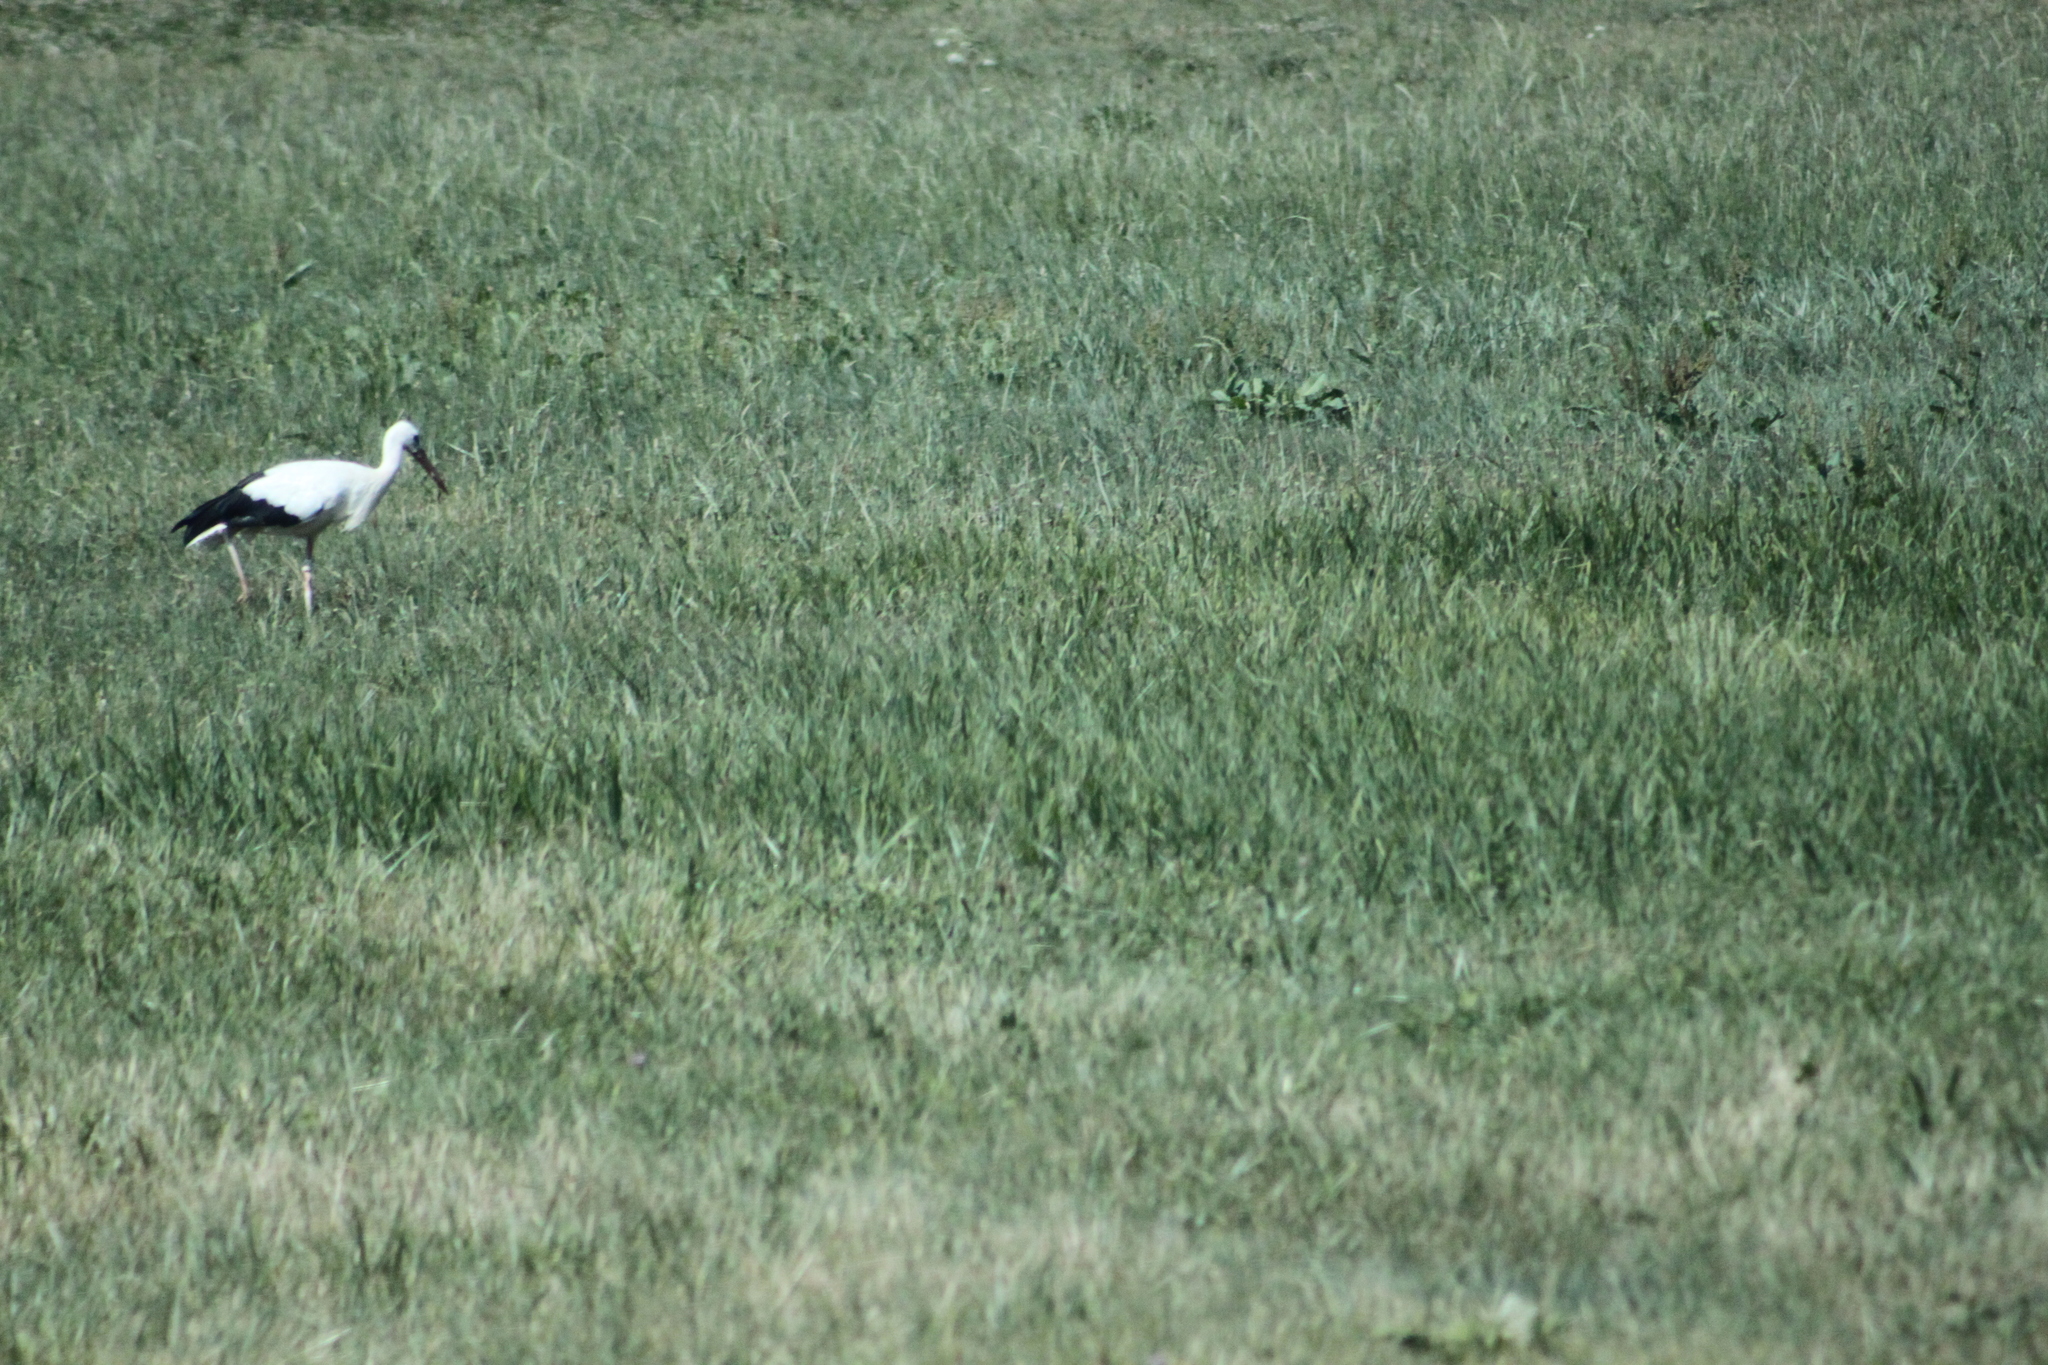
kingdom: Animalia
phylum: Chordata
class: Aves
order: Ciconiiformes
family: Ciconiidae
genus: Ciconia
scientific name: Ciconia ciconia
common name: White stork
